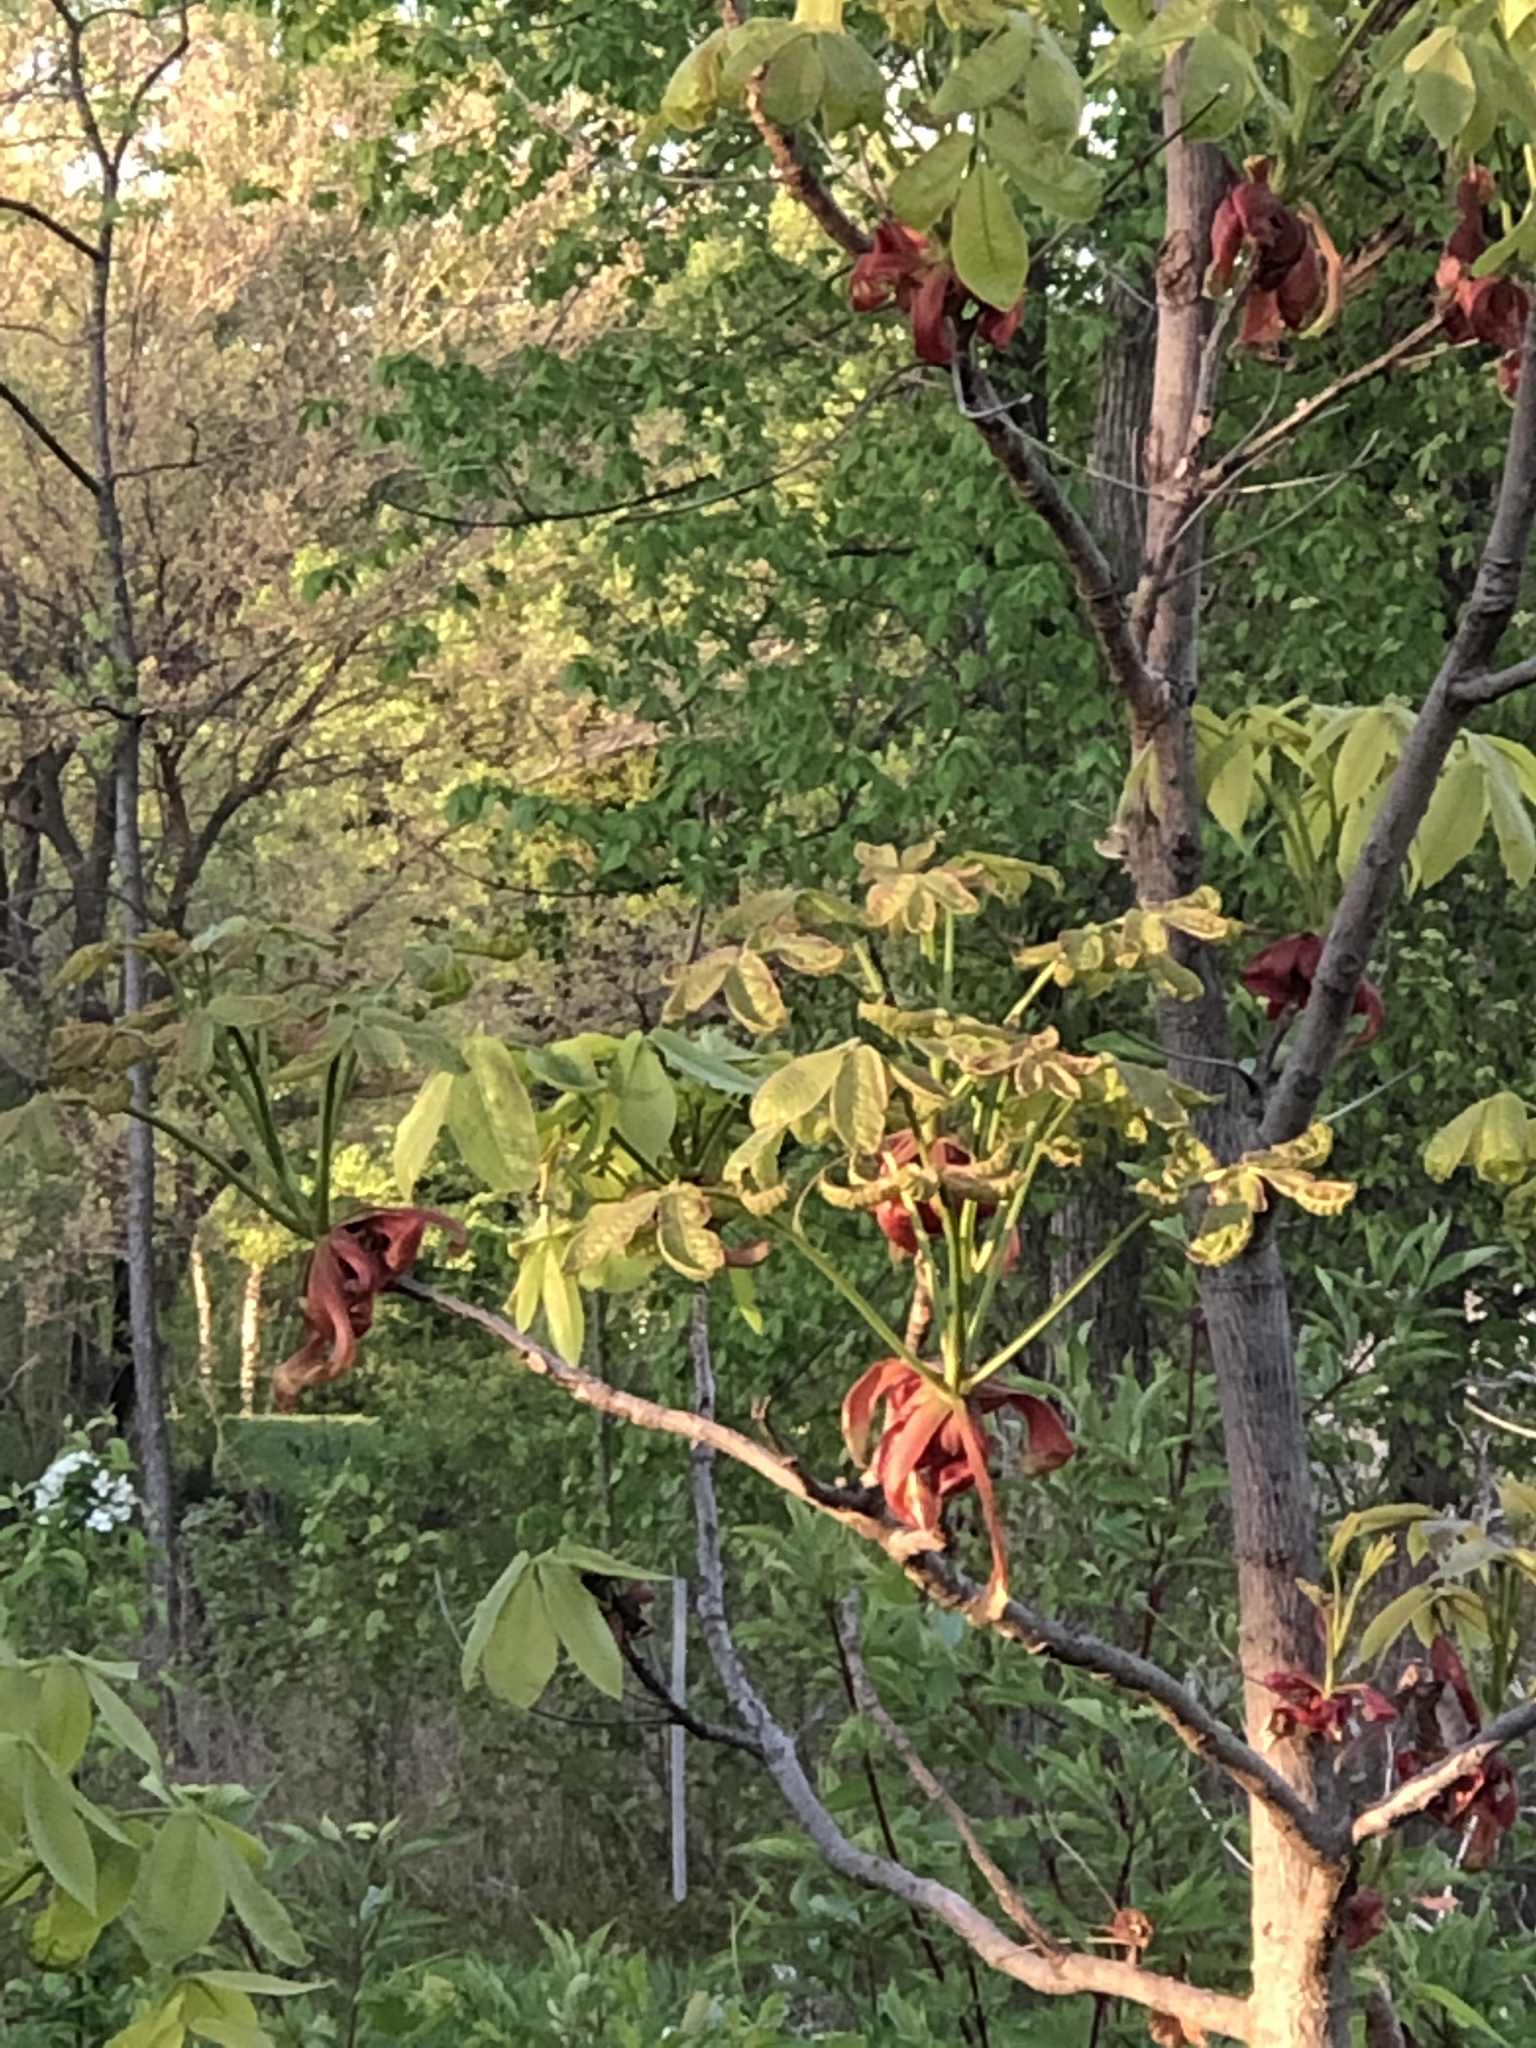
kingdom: Plantae
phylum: Tracheophyta
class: Magnoliopsida
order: Fagales
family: Juglandaceae
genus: Carya
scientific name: Carya ovata
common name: Shagbark hickory
